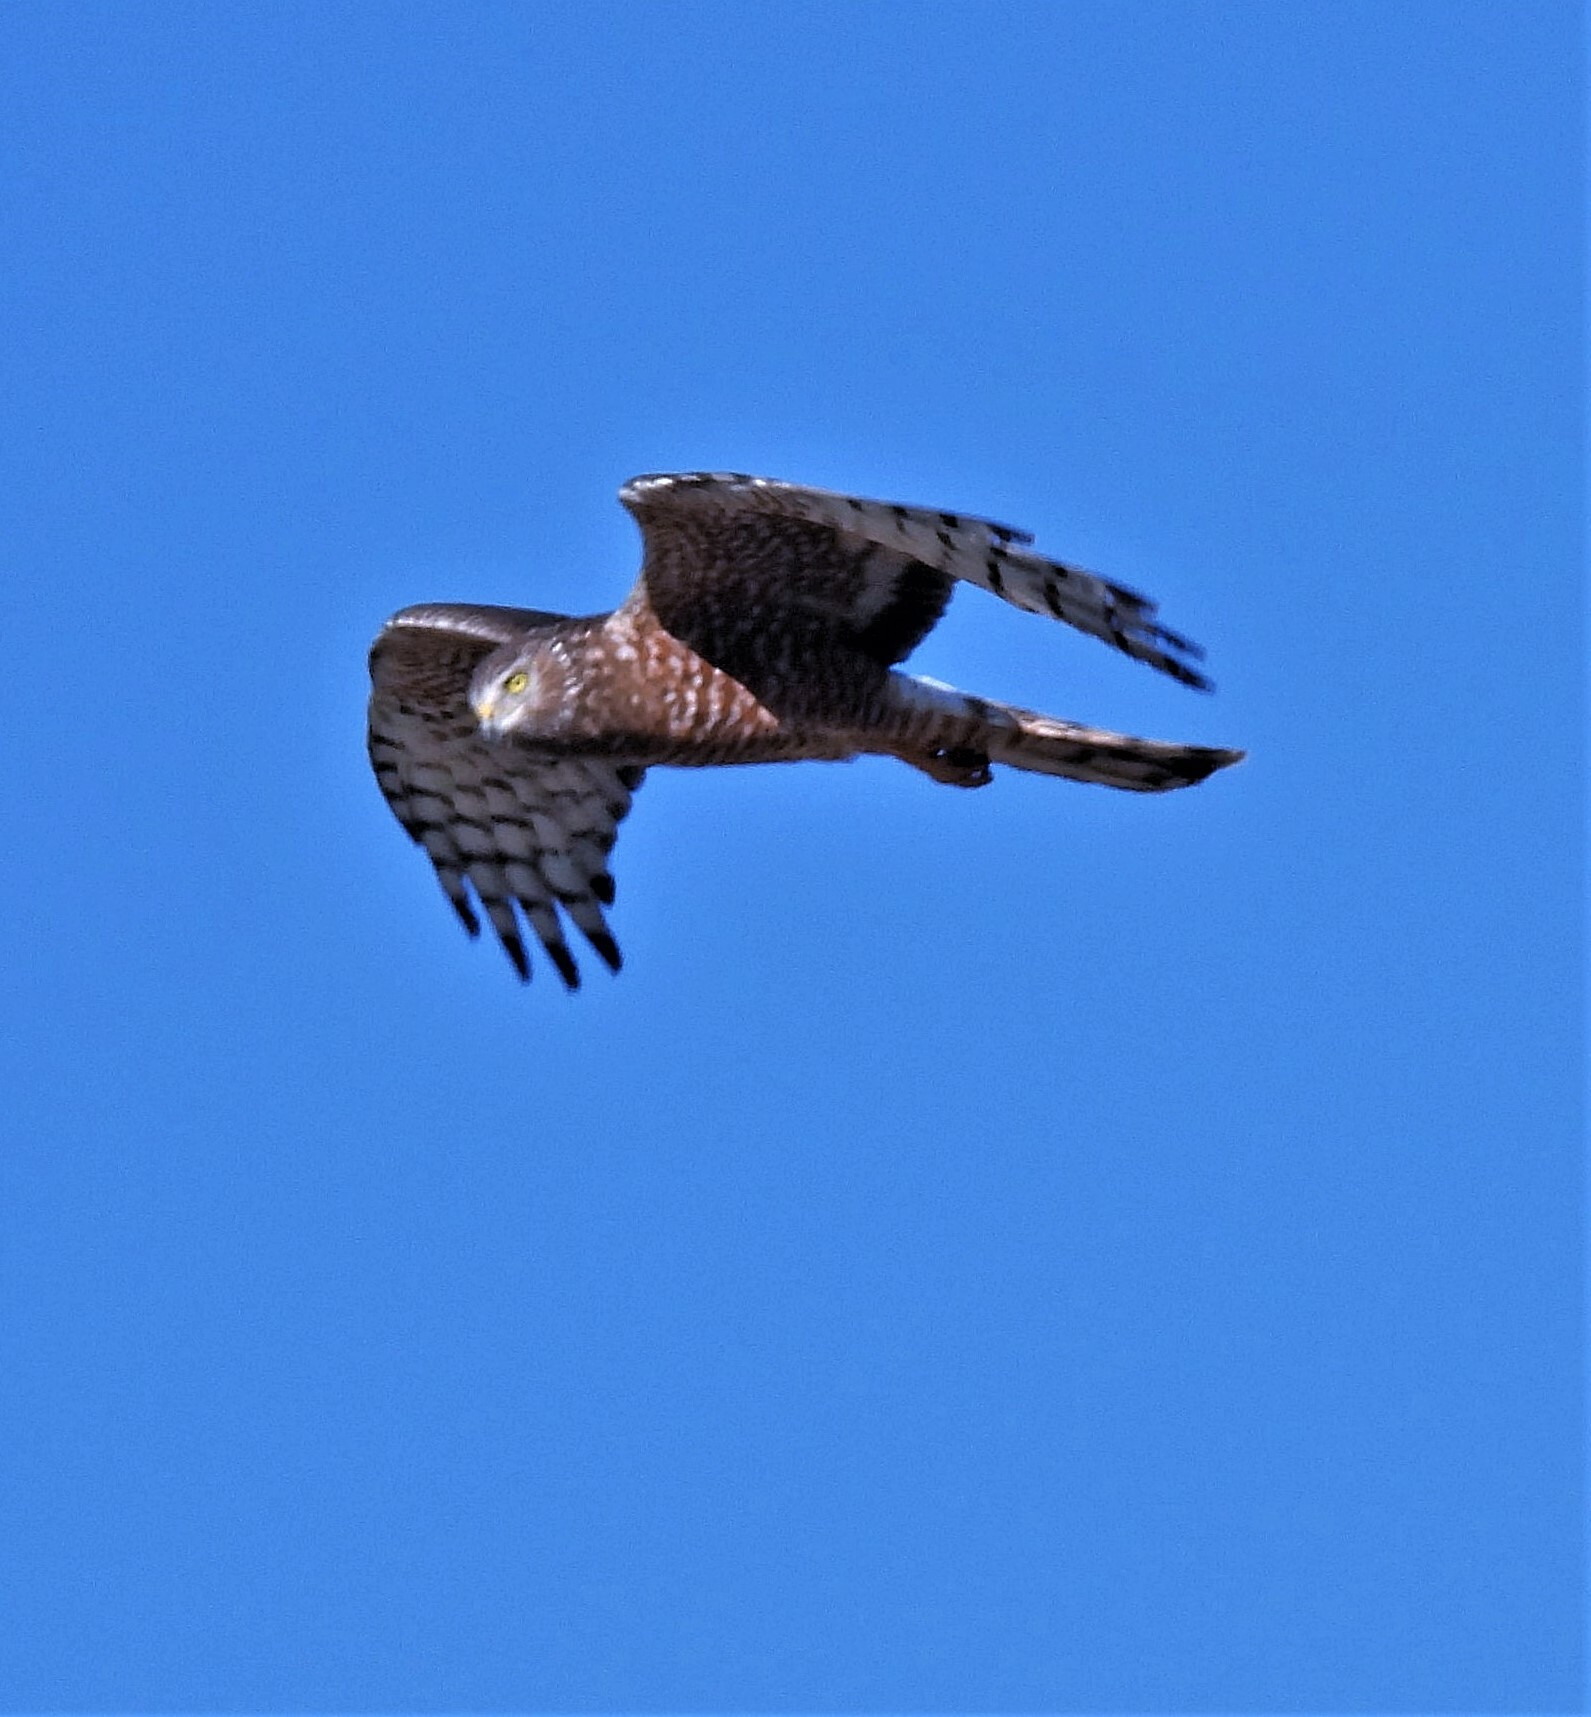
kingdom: Animalia
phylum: Chordata
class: Aves
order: Accipitriformes
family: Accipitridae
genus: Circus
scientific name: Circus cinereus
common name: Cinereous harrier
